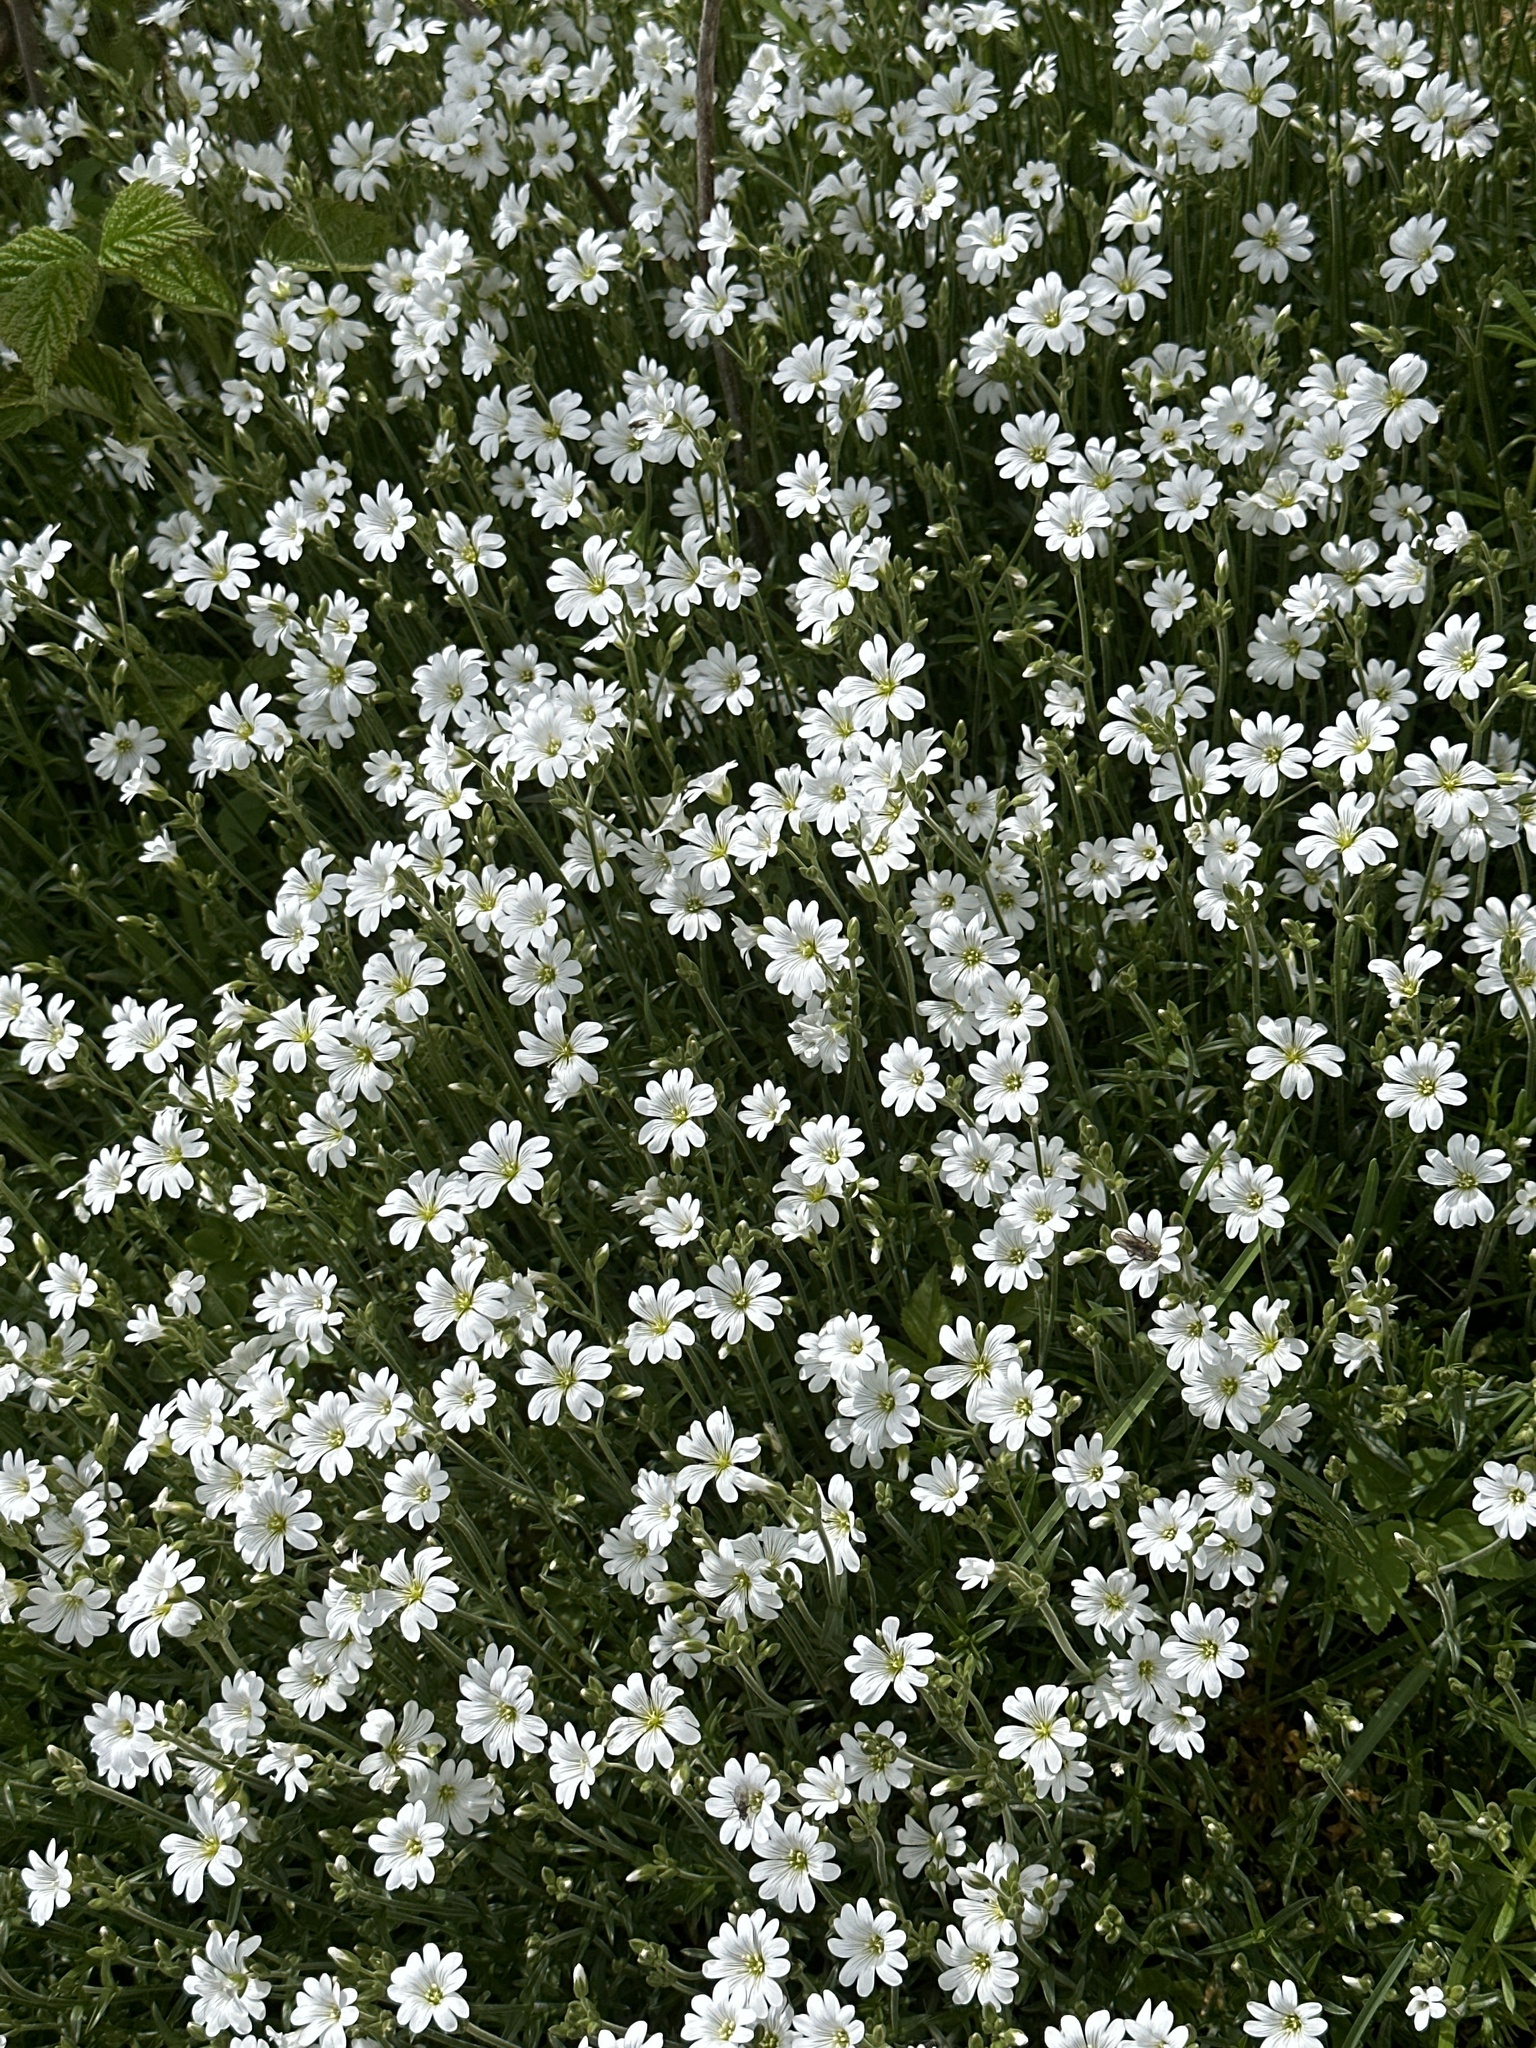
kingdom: Plantae
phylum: Tracheophyta
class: Magnoliopsida
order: Caryophyllales
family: Caryophyllaceae
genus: Cerastium
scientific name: Cerastium arvense
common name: Field mouse-ear
